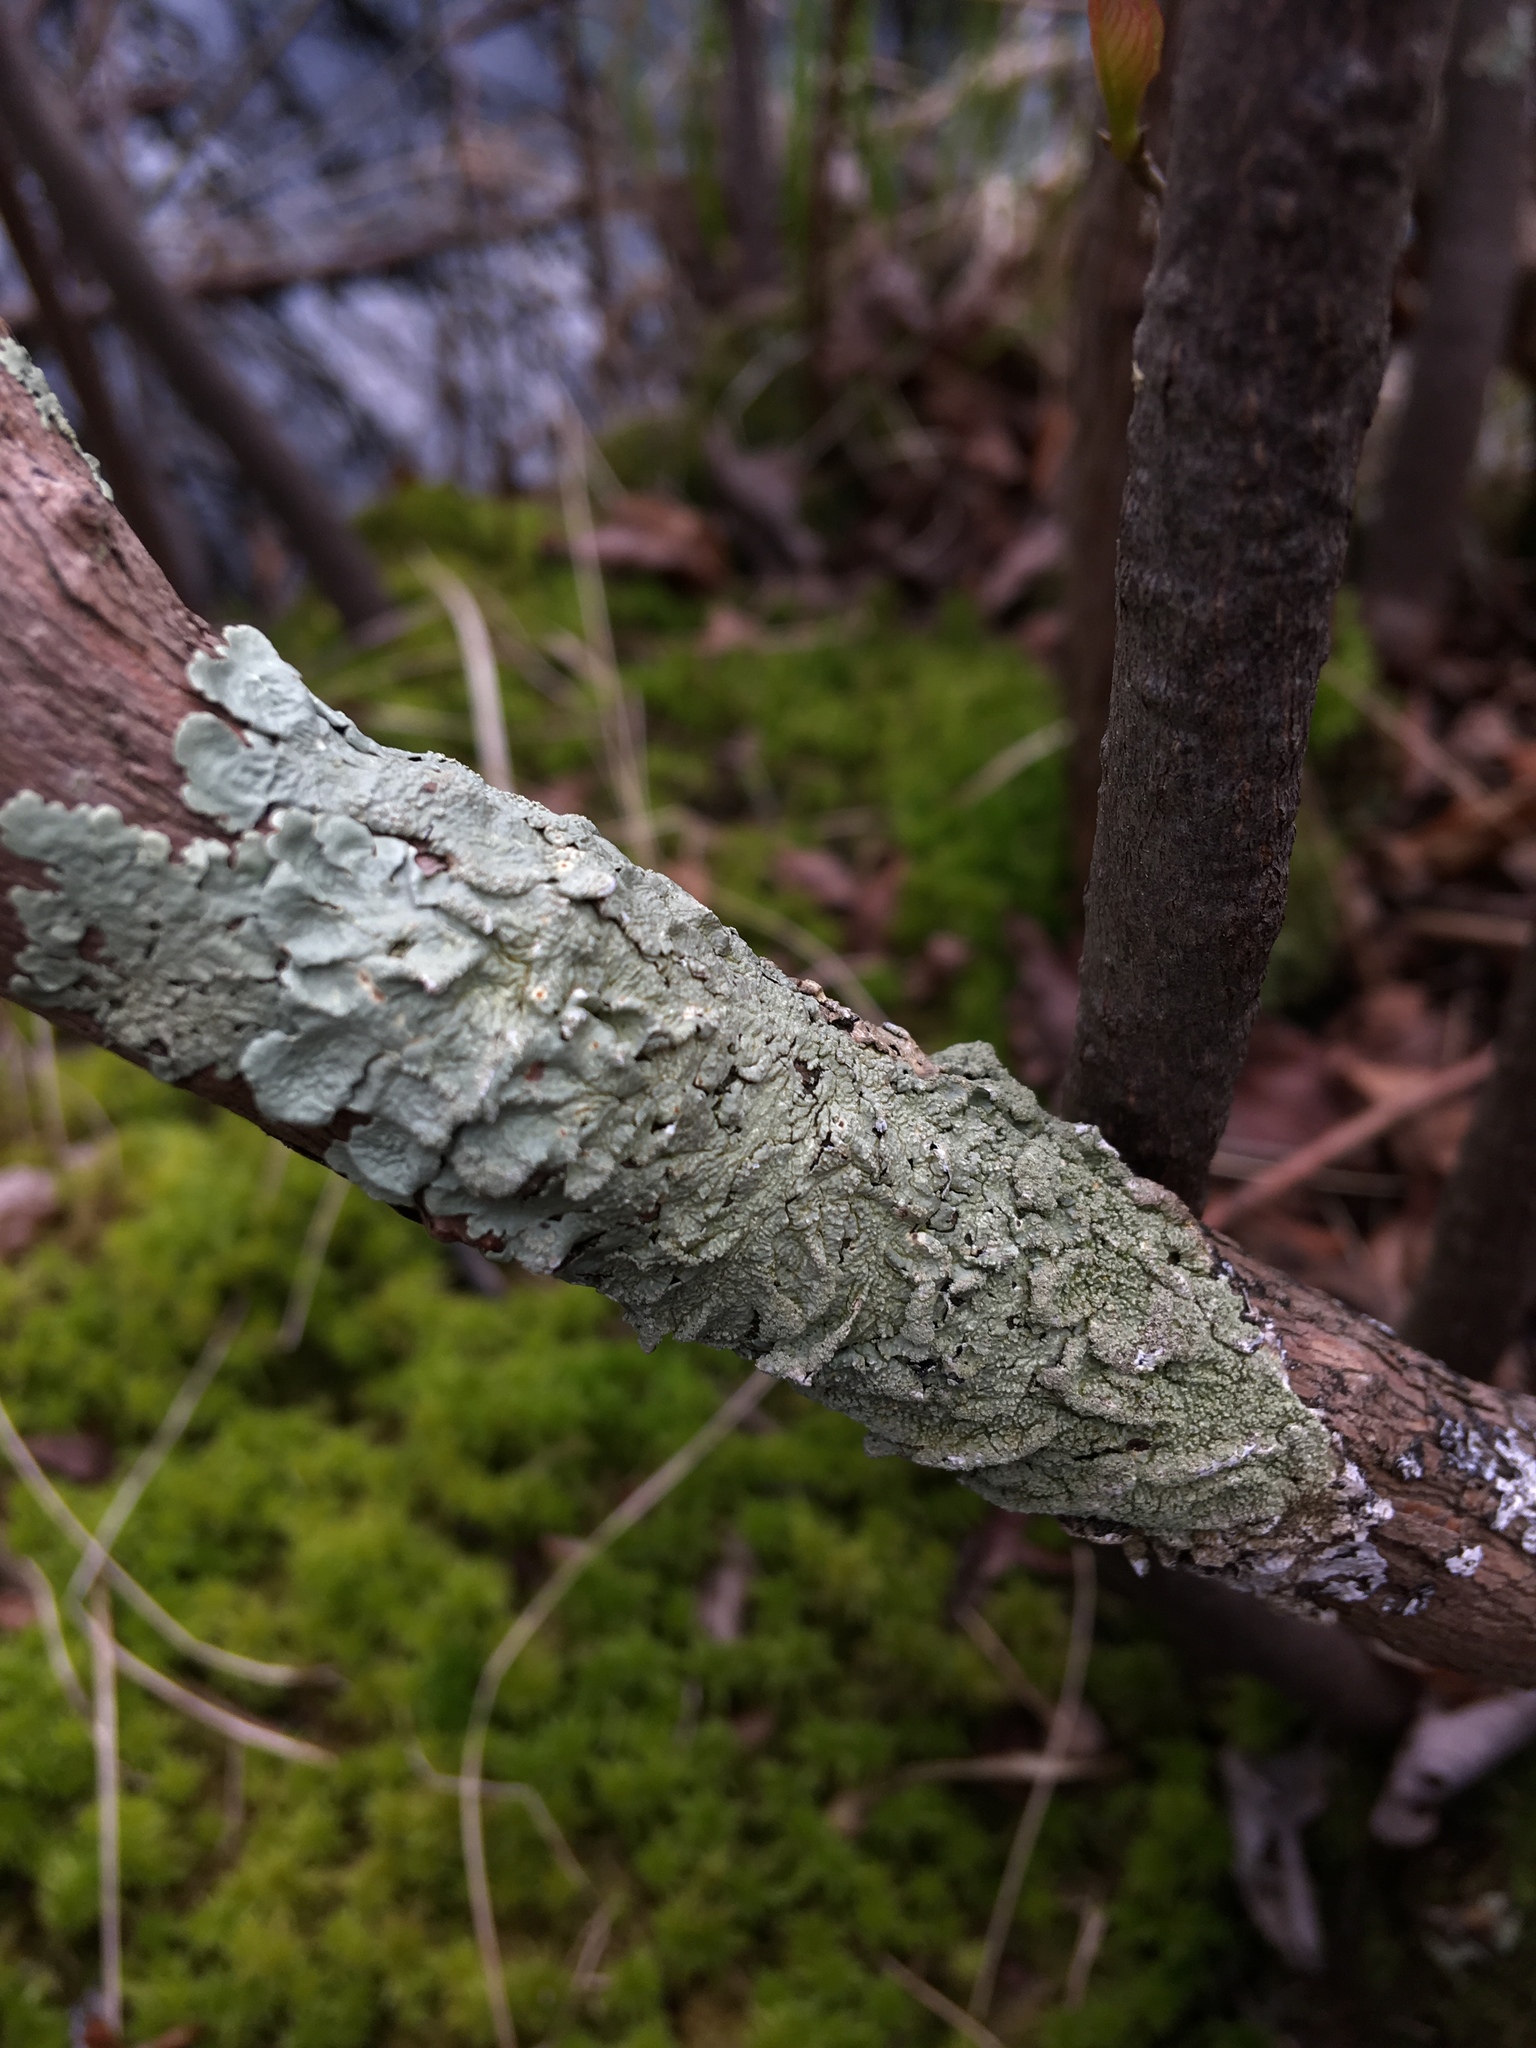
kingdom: Fungi
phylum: Ascomycota
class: Lecanoromycetes
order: Lecanorales
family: Parmeliaceae
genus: Flavoparmelia
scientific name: Flavoparmelia caperata
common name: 40-mile per hour lichen
